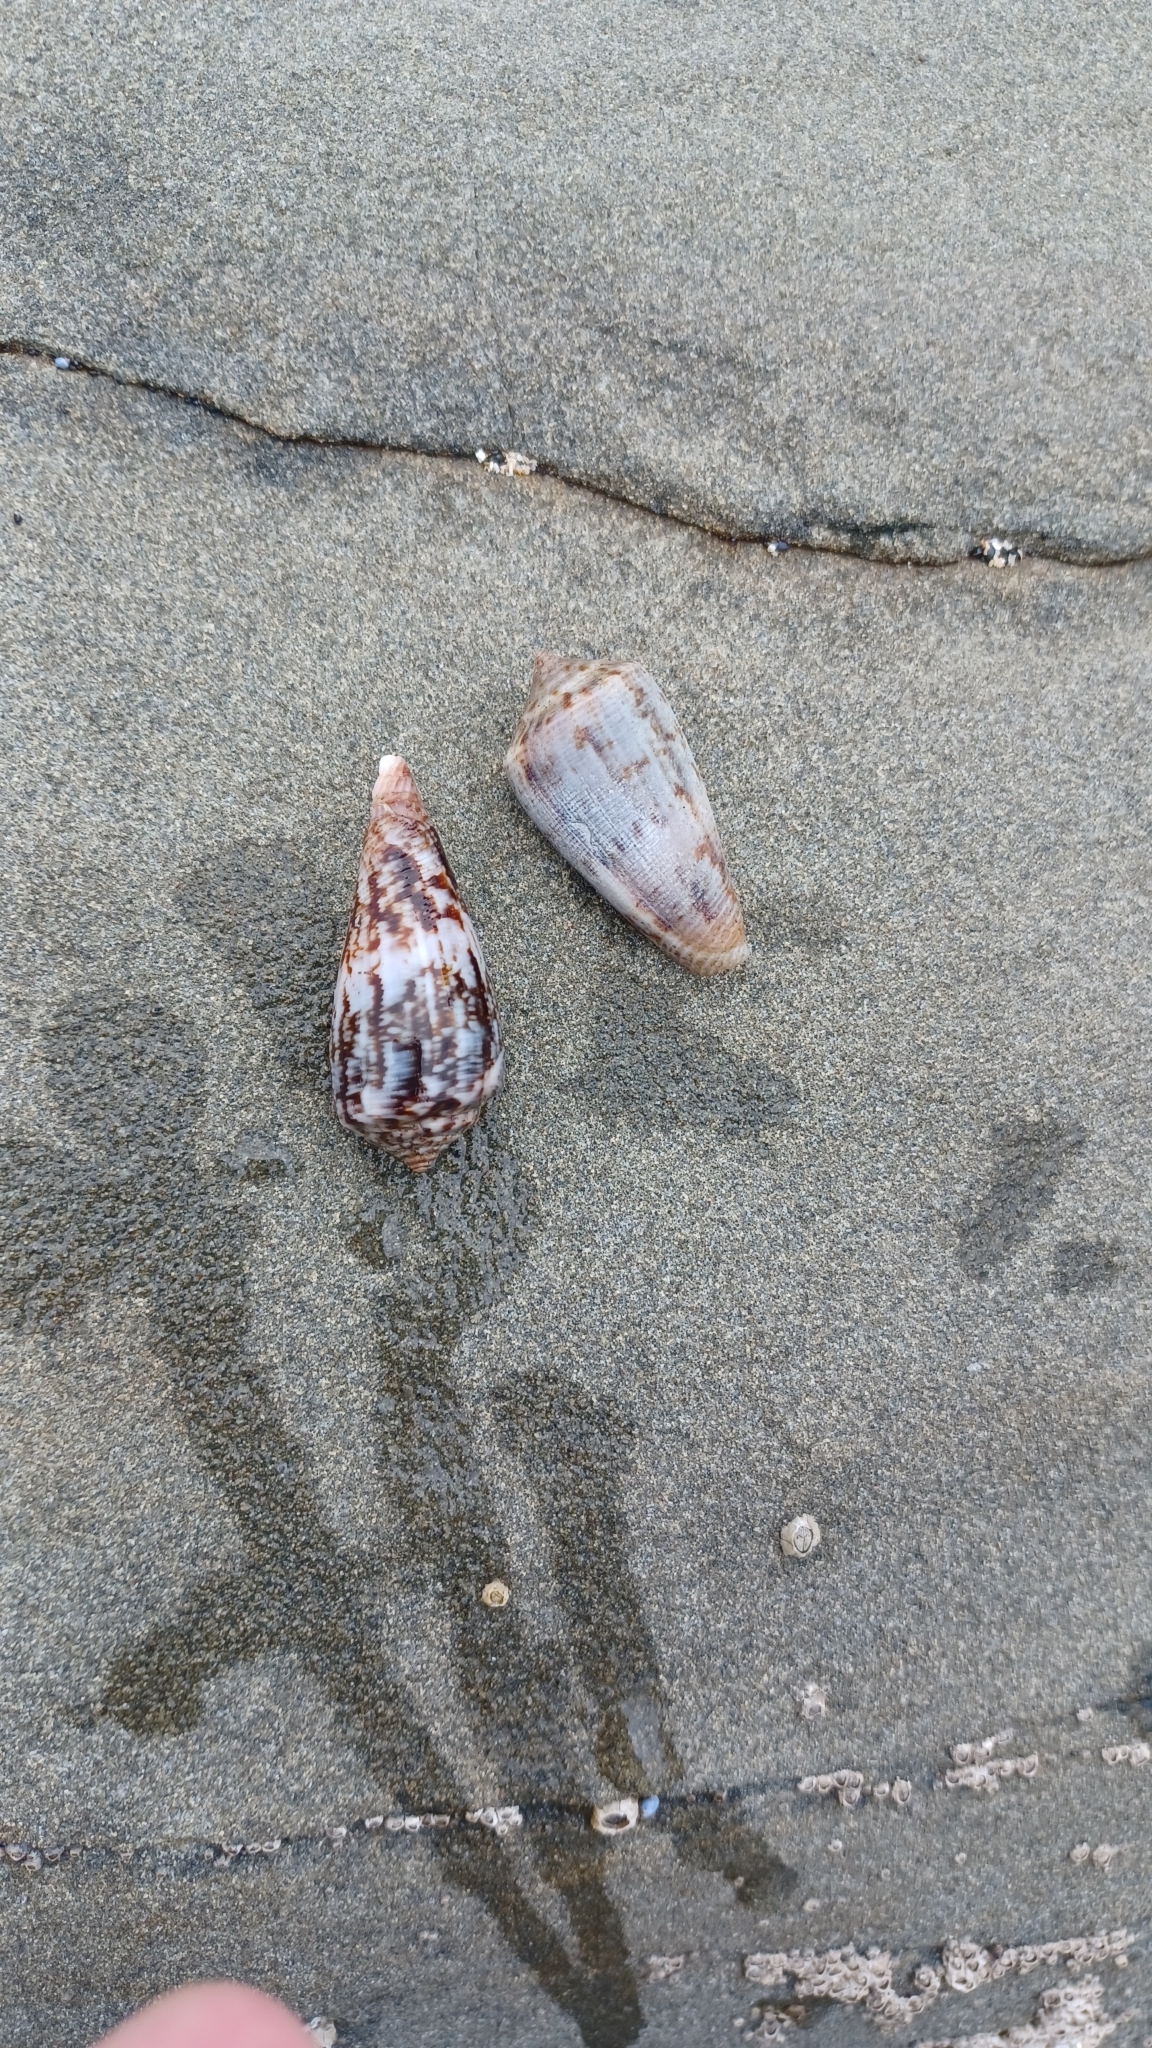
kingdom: Animalia
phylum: Mollusca
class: Gastropoda
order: Neogastropoda
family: Conidae
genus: Conus
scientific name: Conus anemone
